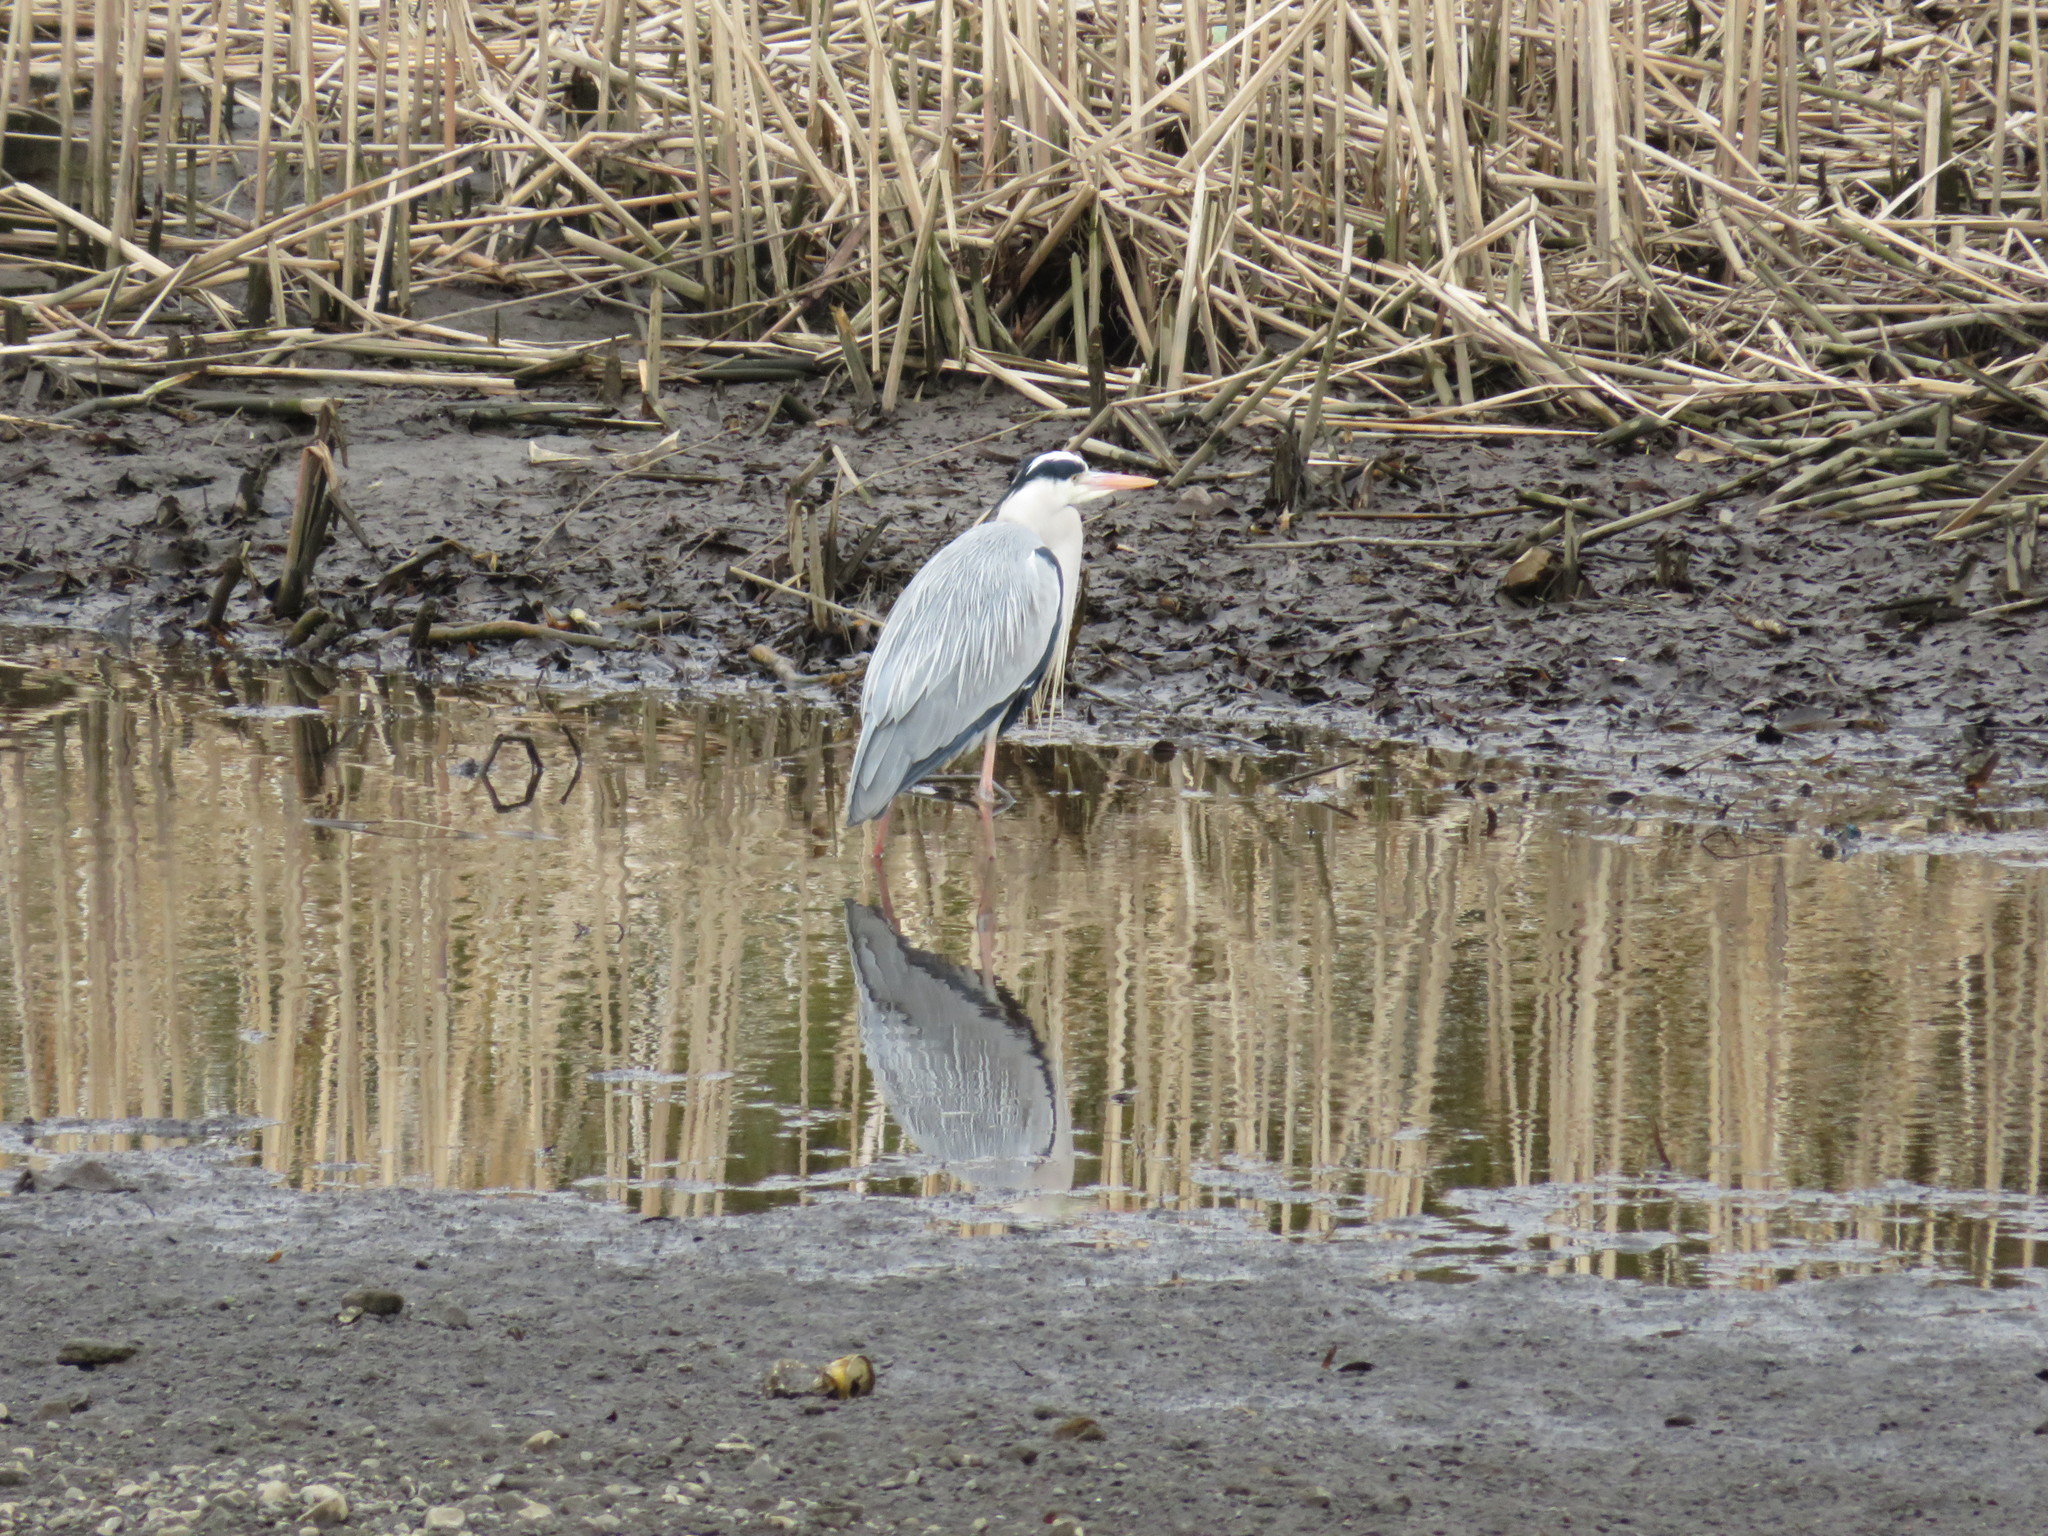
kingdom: Animalia
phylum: Chordata
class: Aves
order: Pelecaniformes
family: Ardeidae
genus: Ardea
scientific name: Ardea cinerea
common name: Grey heron
